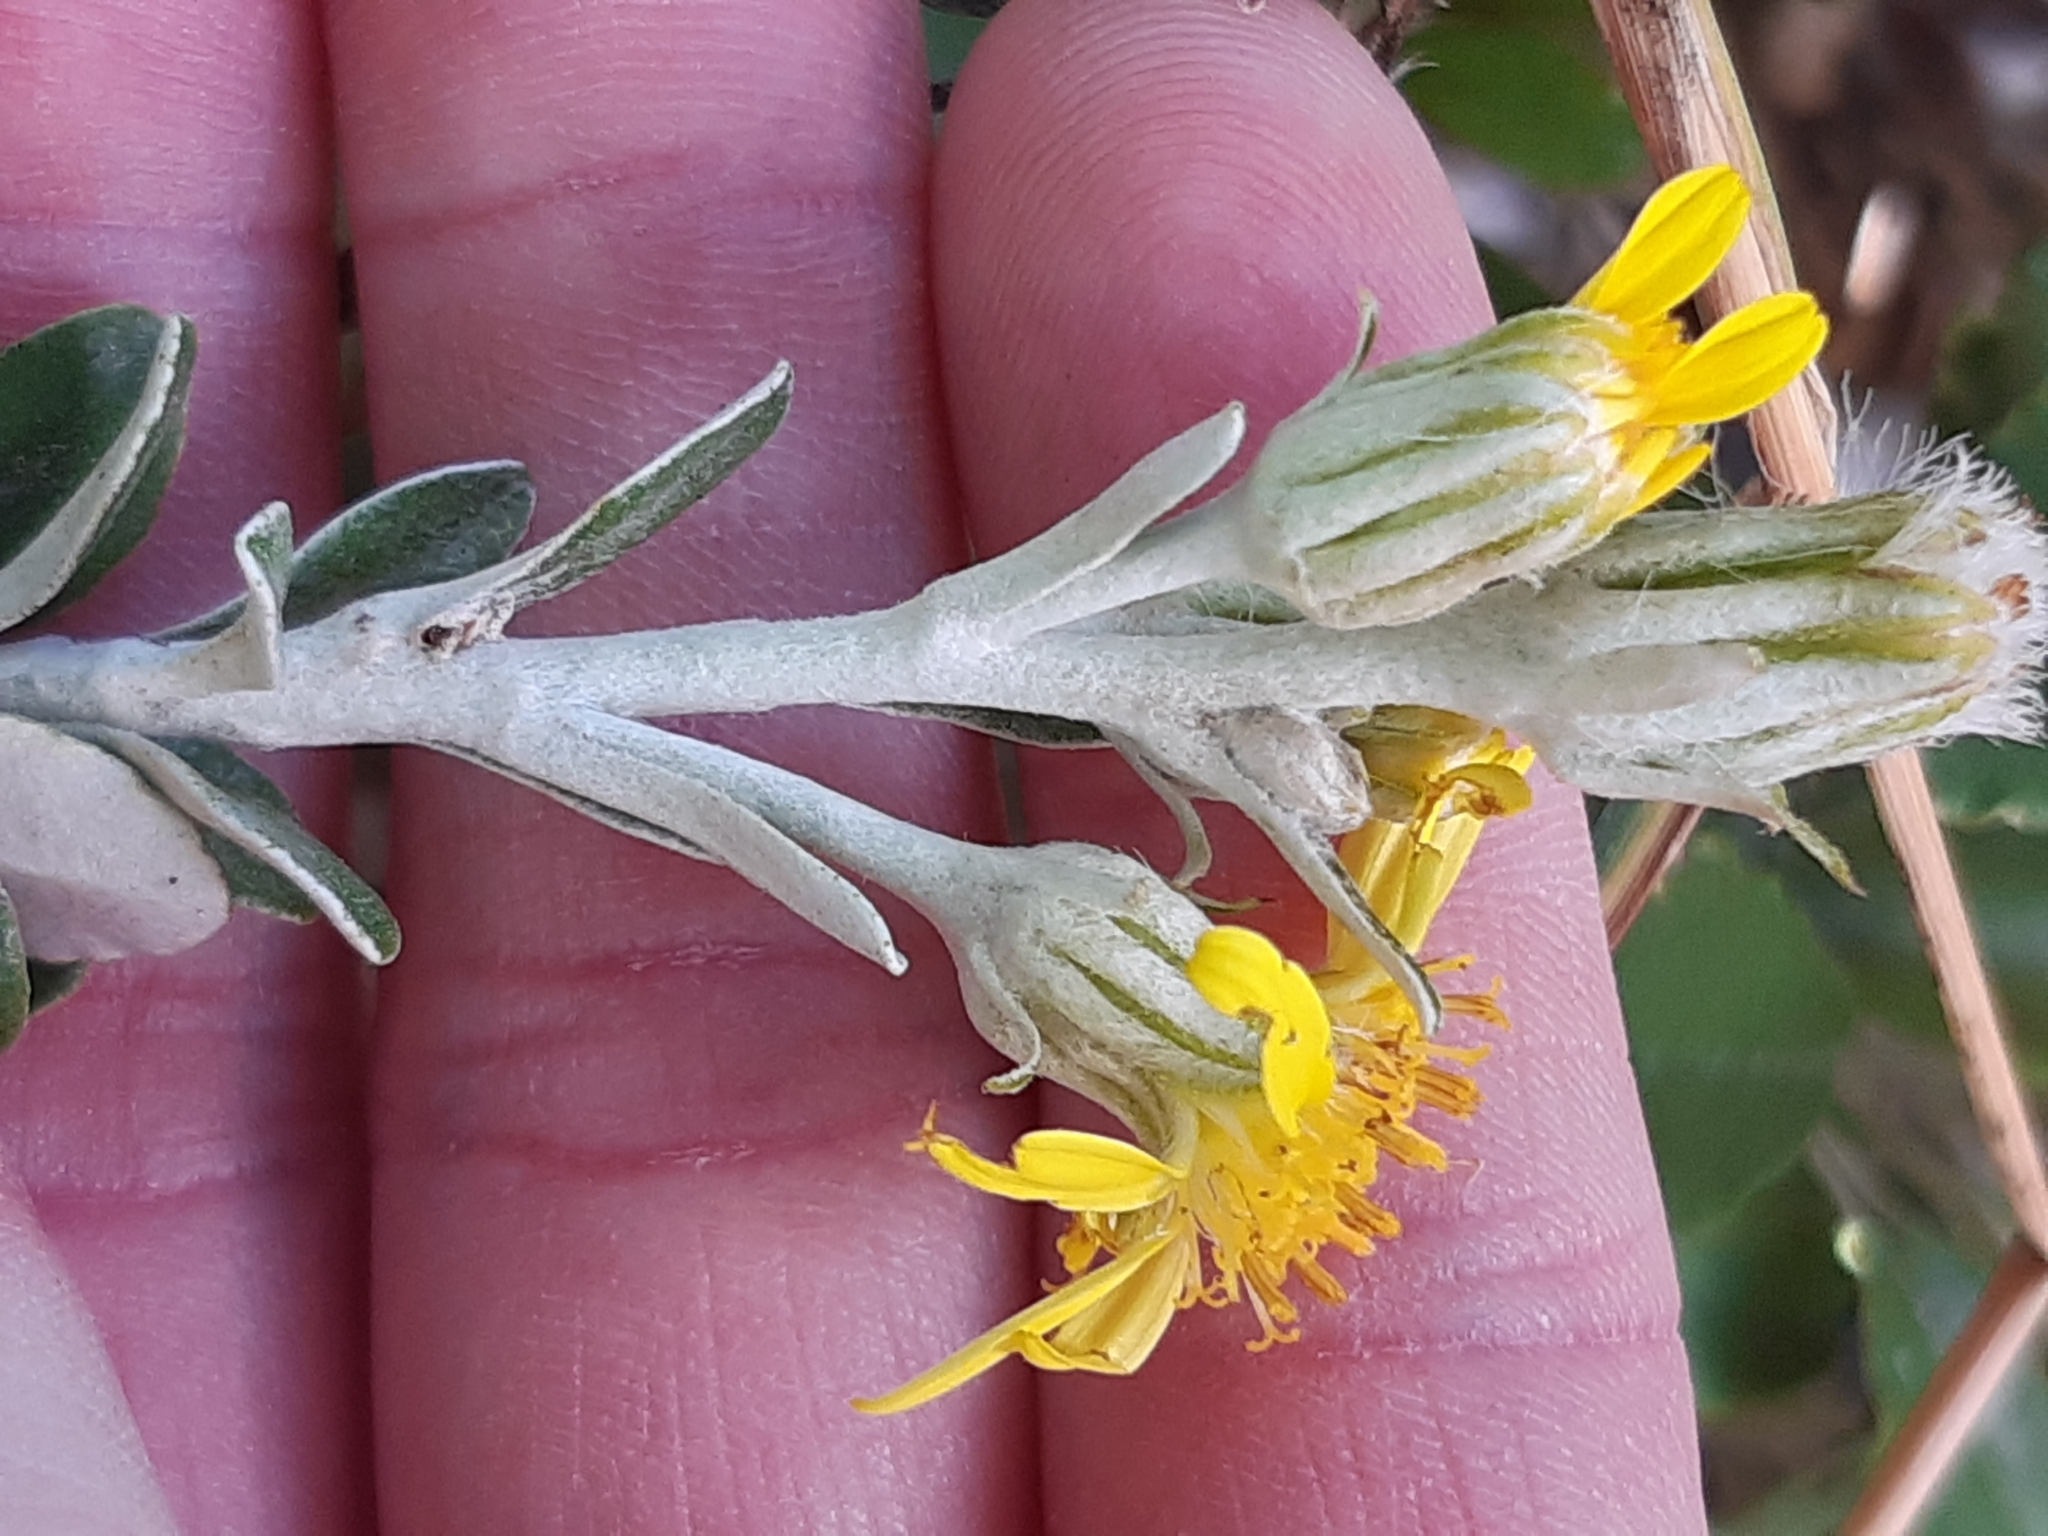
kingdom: Plantae
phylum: Tracheophyta
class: Magnoliopsida
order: Asterales
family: Asteraceae
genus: Brachyglottis
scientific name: Brachyglottis monroi
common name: Monro's ragwort
